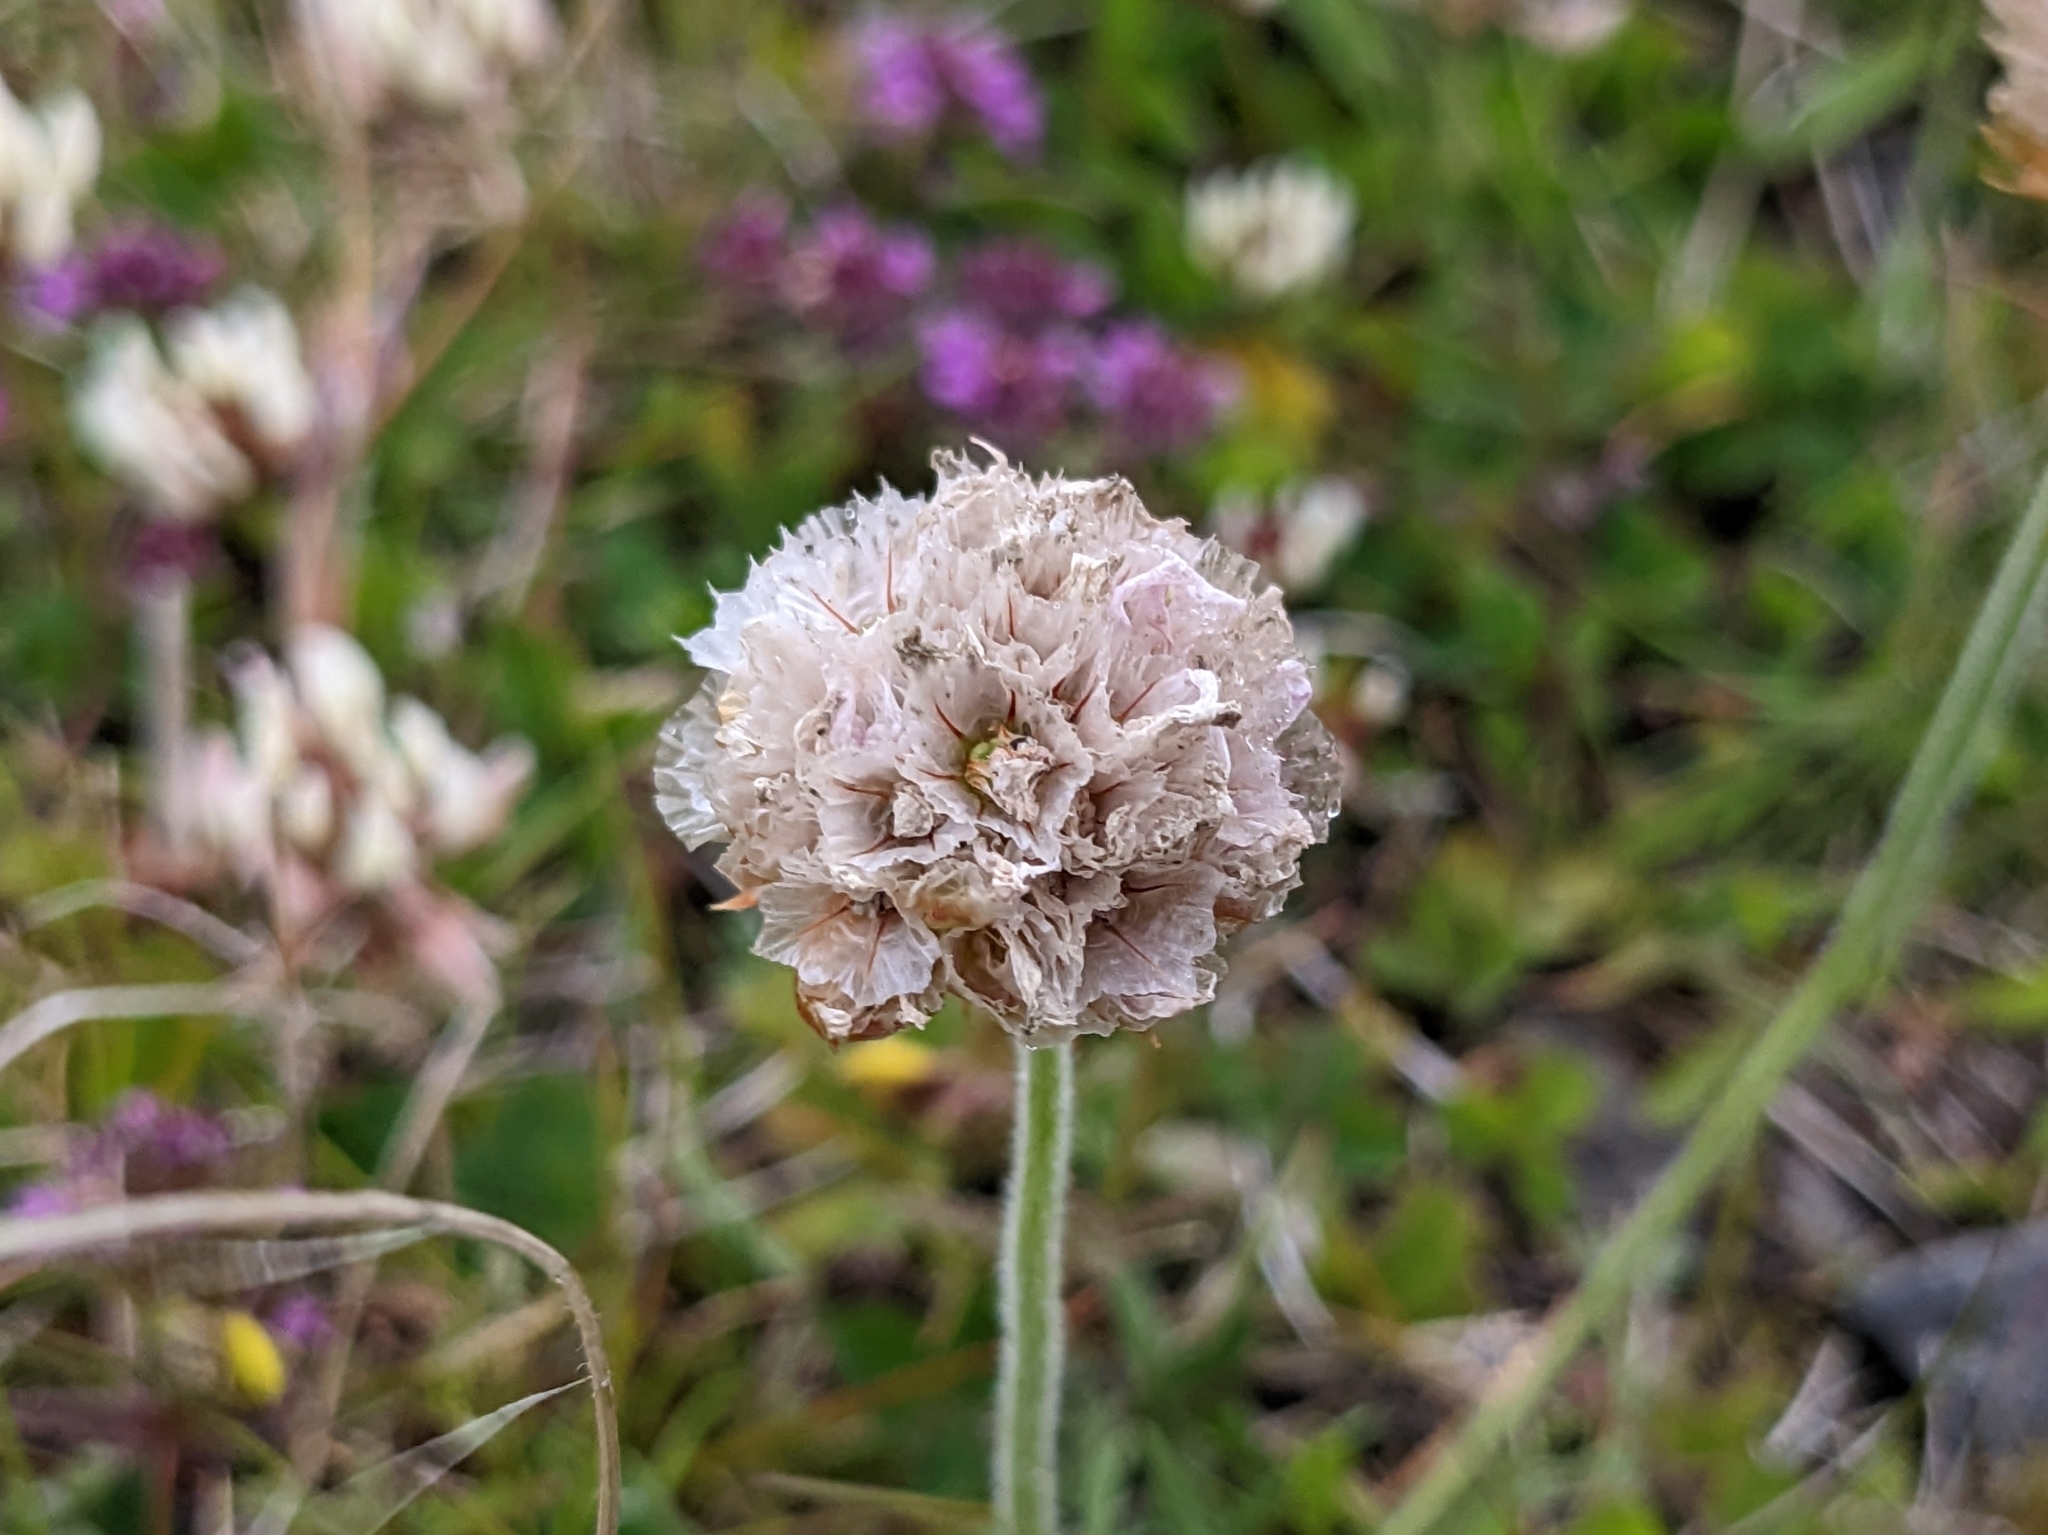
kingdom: Plantae
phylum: Tracheophyta
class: Magnoliopsida
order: Caryophyllales
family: Plumbaginaceae
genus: Armeria
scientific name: Armeria maritima
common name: Thrift
